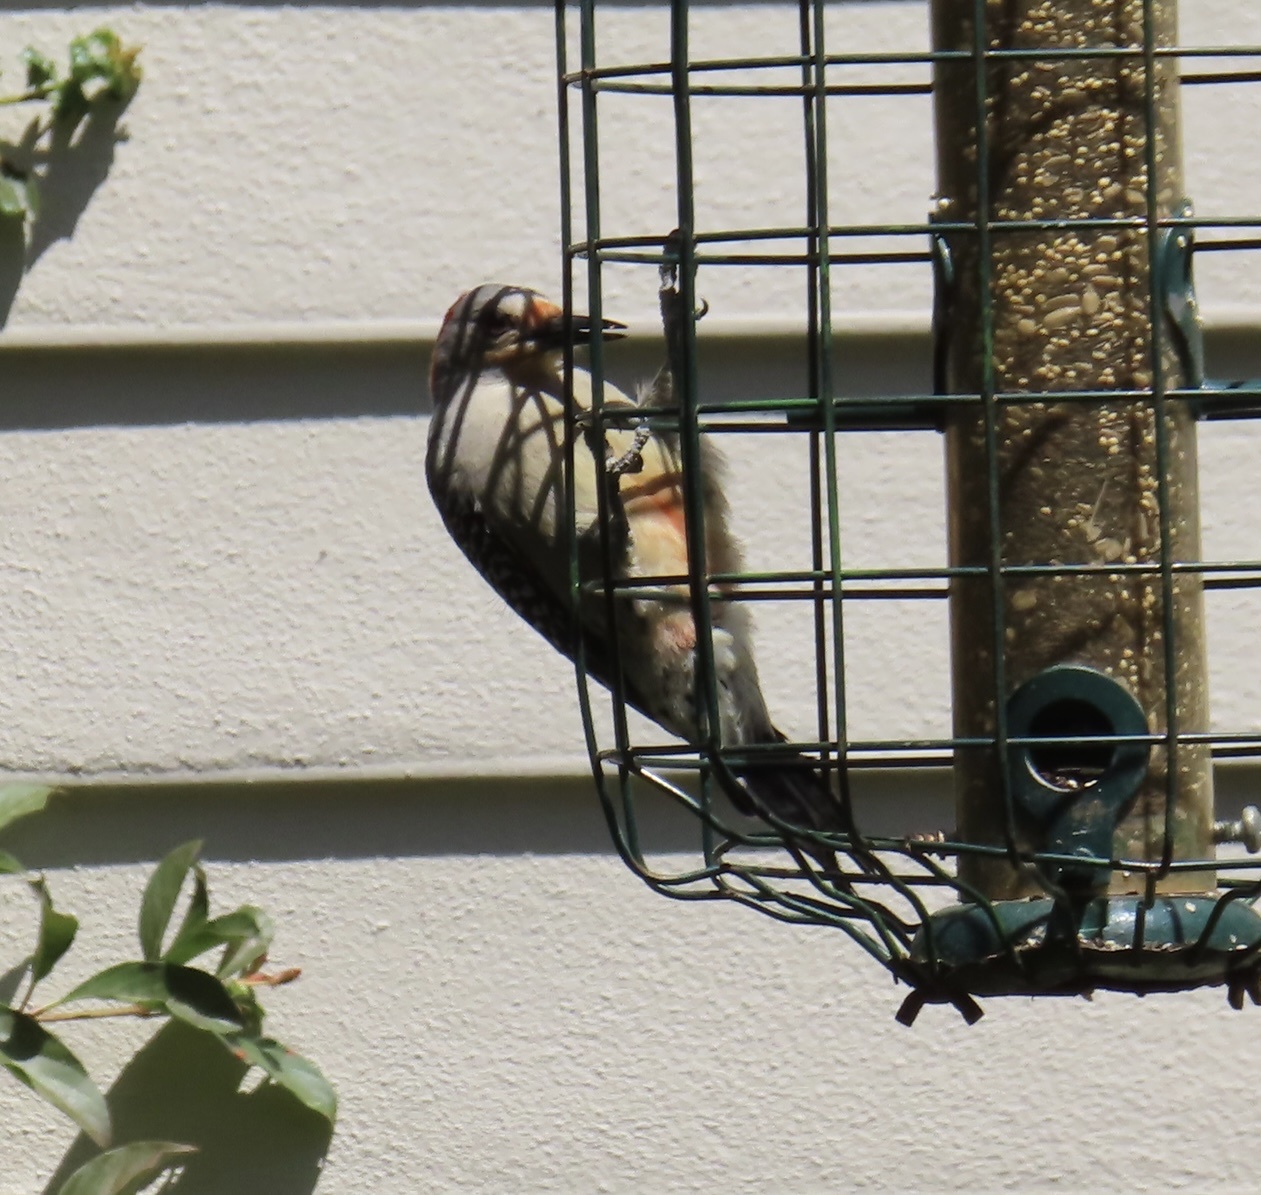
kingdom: Animalia
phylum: Chordata
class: Aves
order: Piciformes
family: Picidae
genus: Melanerpes
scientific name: Melanerpes carolinus
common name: Red-bellied woodpecker
